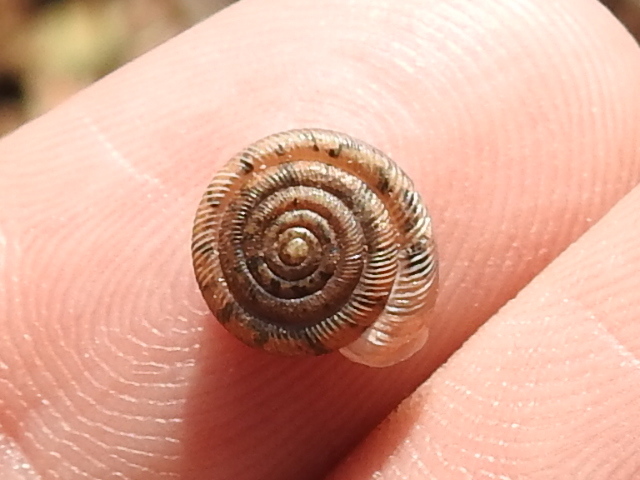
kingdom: Animalia
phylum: Mollusca
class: Gastropoda
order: Stylommatophora
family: Polygyridae
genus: Polygyra
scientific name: Polygyra cereolus
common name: Southern flatcone snail
